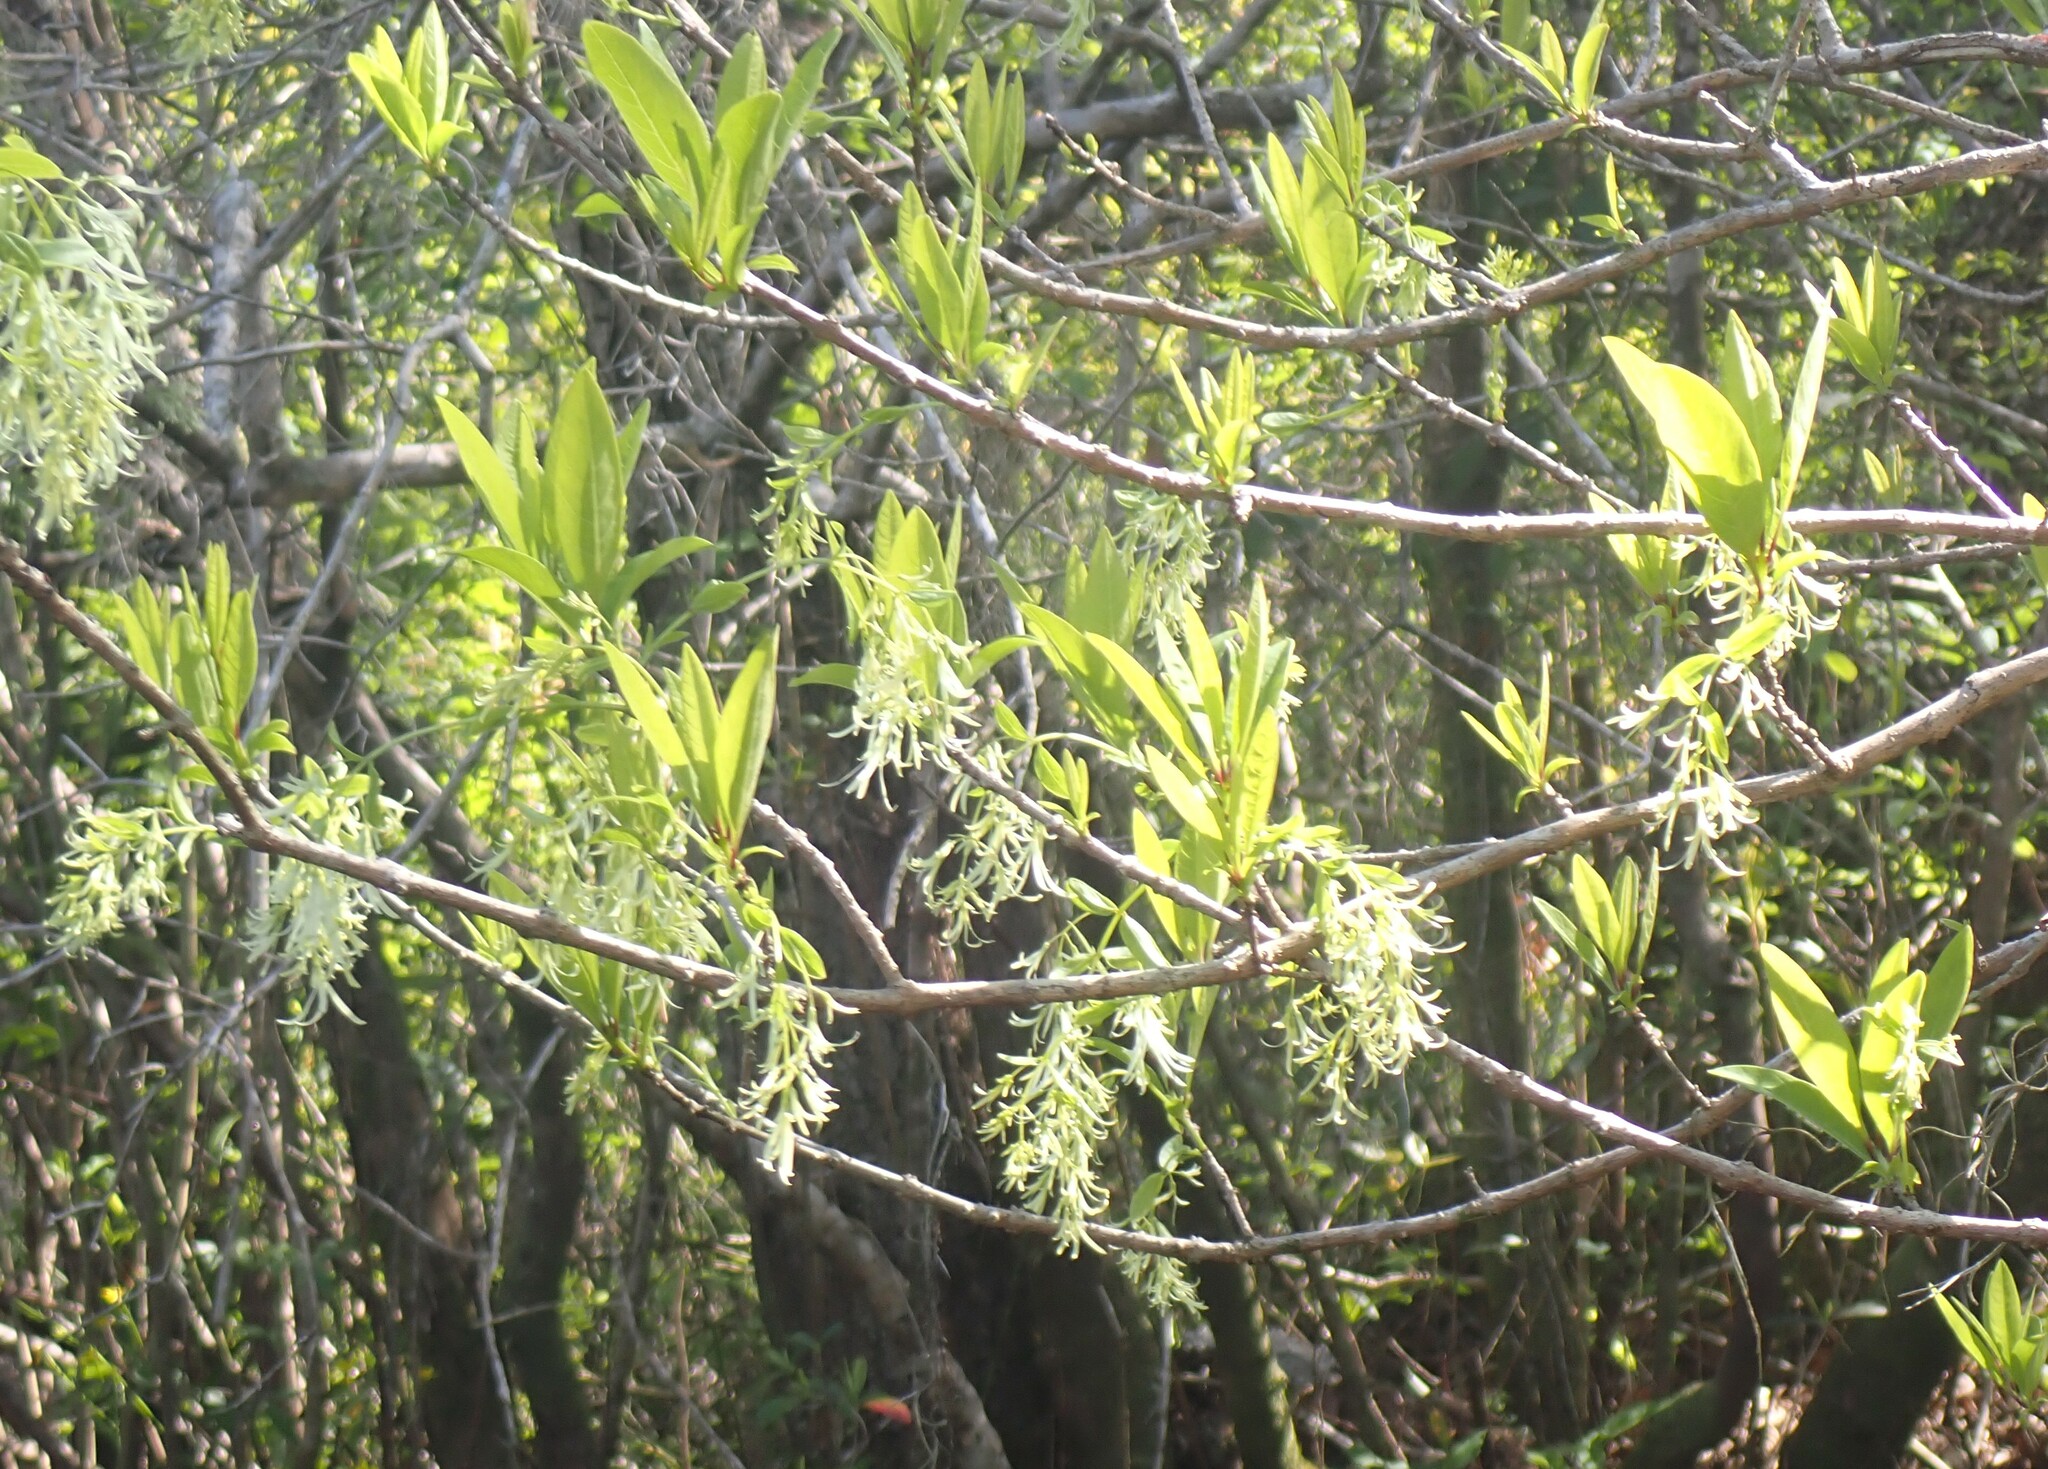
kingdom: Plantae
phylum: Tracheophyta
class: Magnoliopsida
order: Lamiales
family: Oleaceae
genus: Chionanthus
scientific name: Chionanthus virginicus
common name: American fringetree
